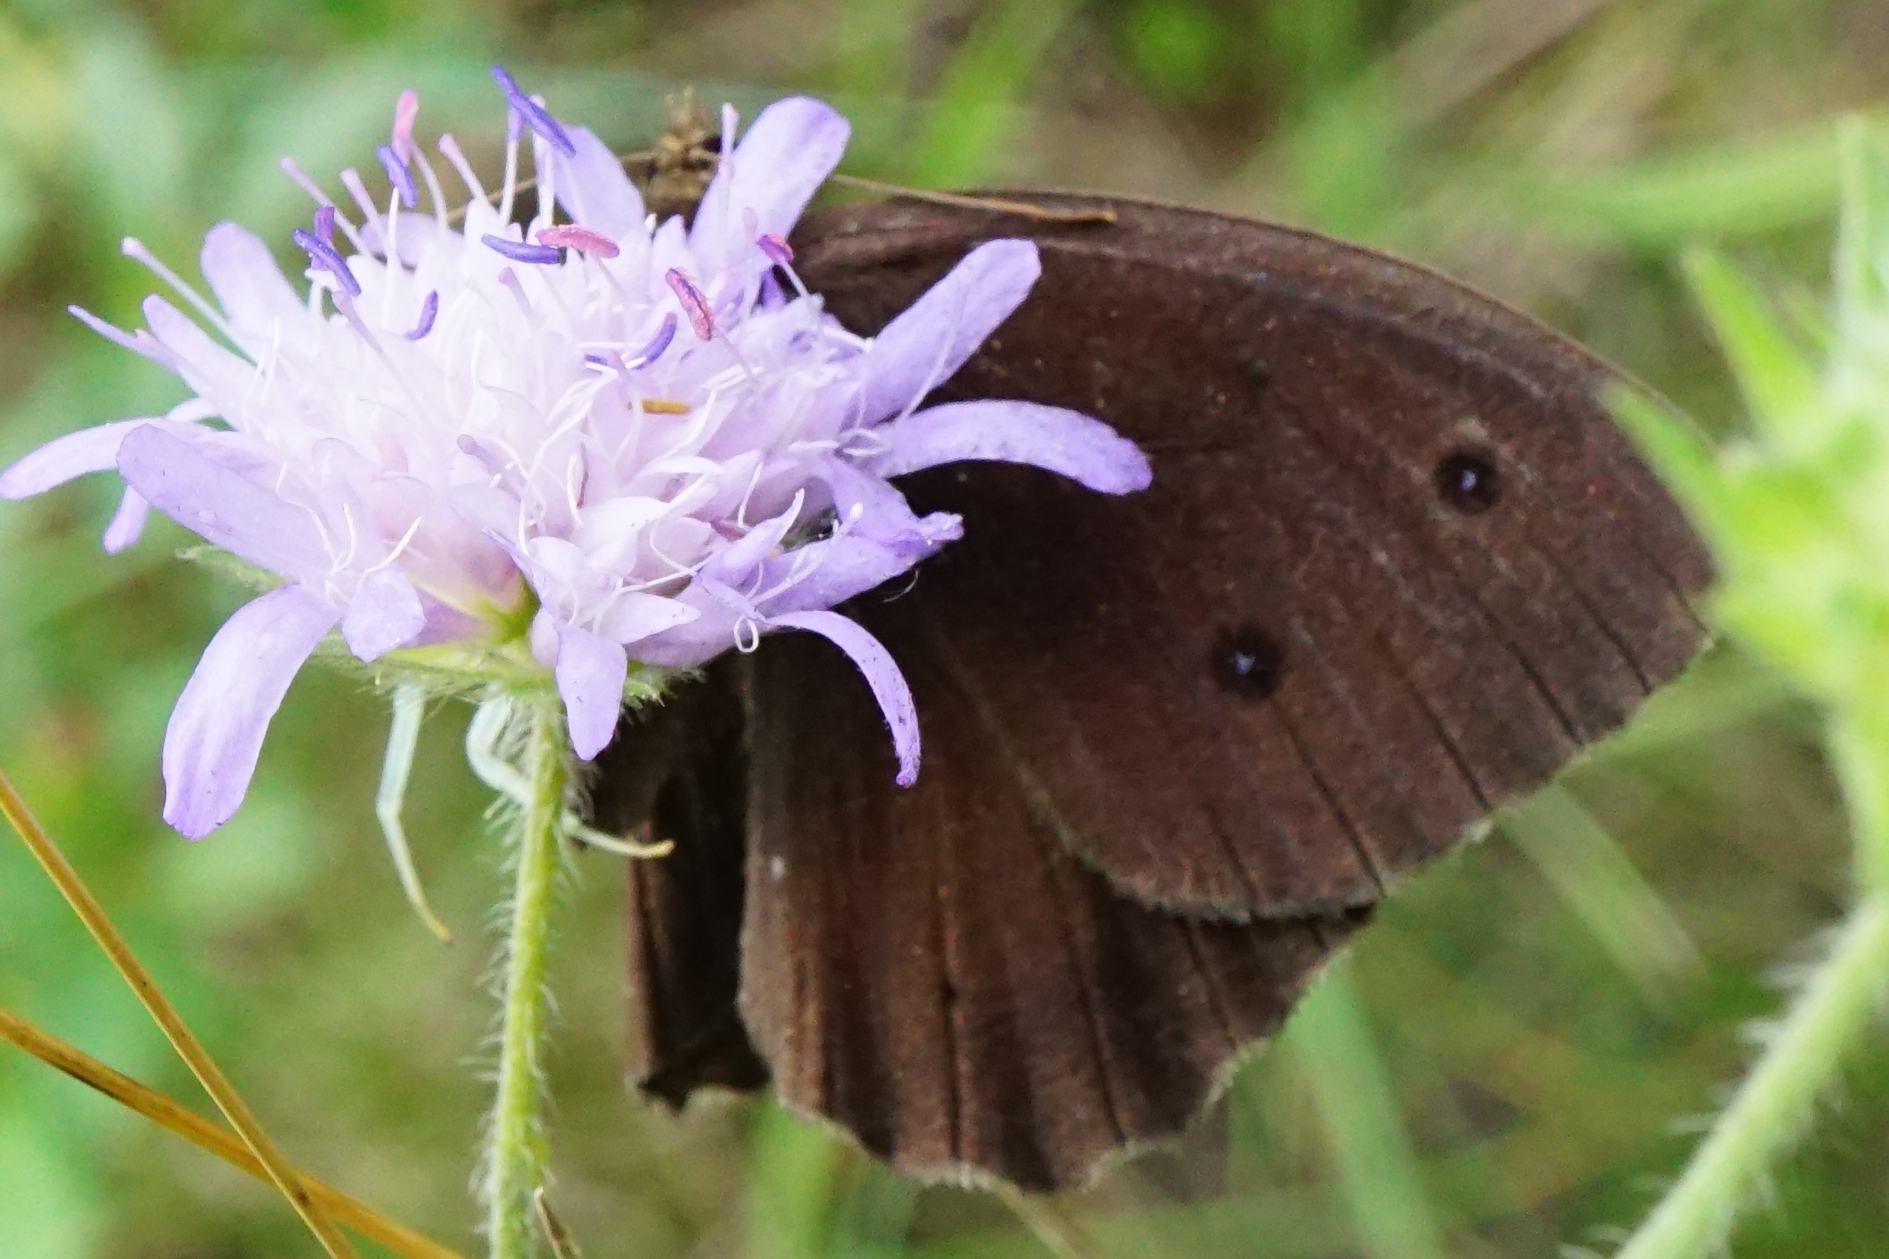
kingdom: Animalia
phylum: Arthropoda
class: Insecta
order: Lepidoptera
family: Nymphalidae
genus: Minois
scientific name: Minois dryas
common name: Dryad
